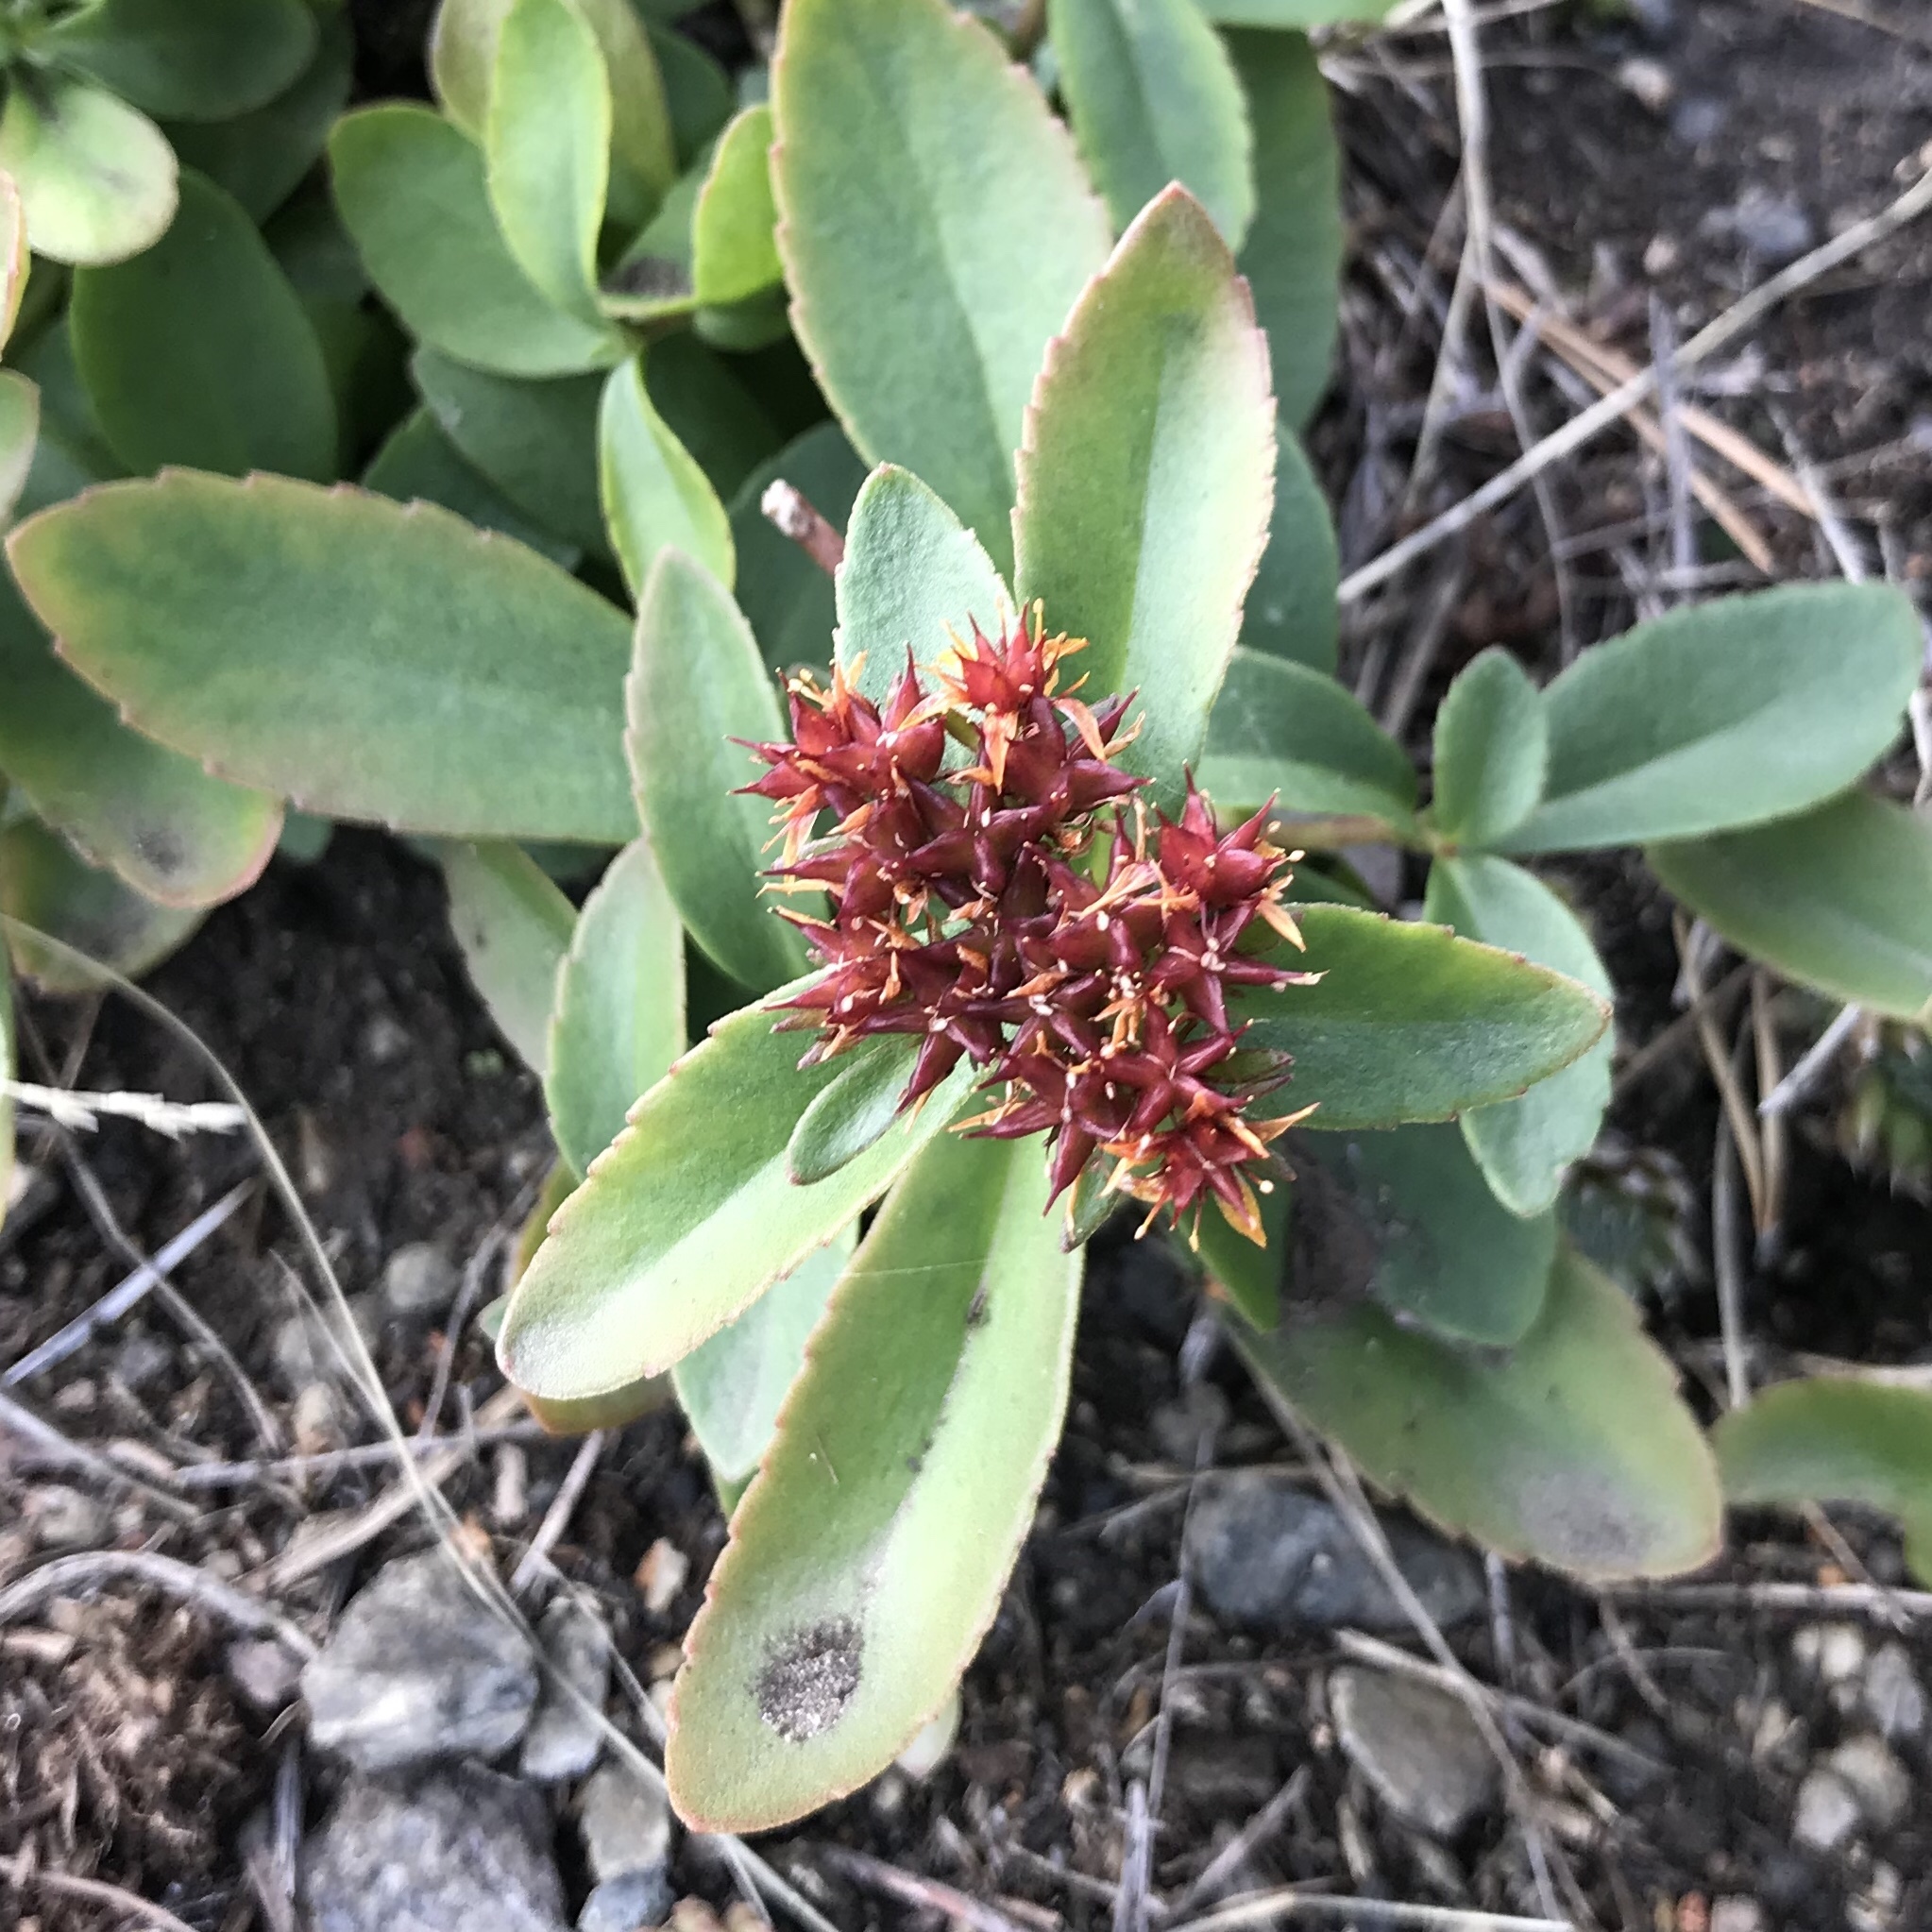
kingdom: Plantae
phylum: Tracheophyta
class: Magnoliopsida
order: Saxifragales
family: Crassulaceae
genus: Phedimus
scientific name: Phedimus aizoon
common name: Orpin aizoon
